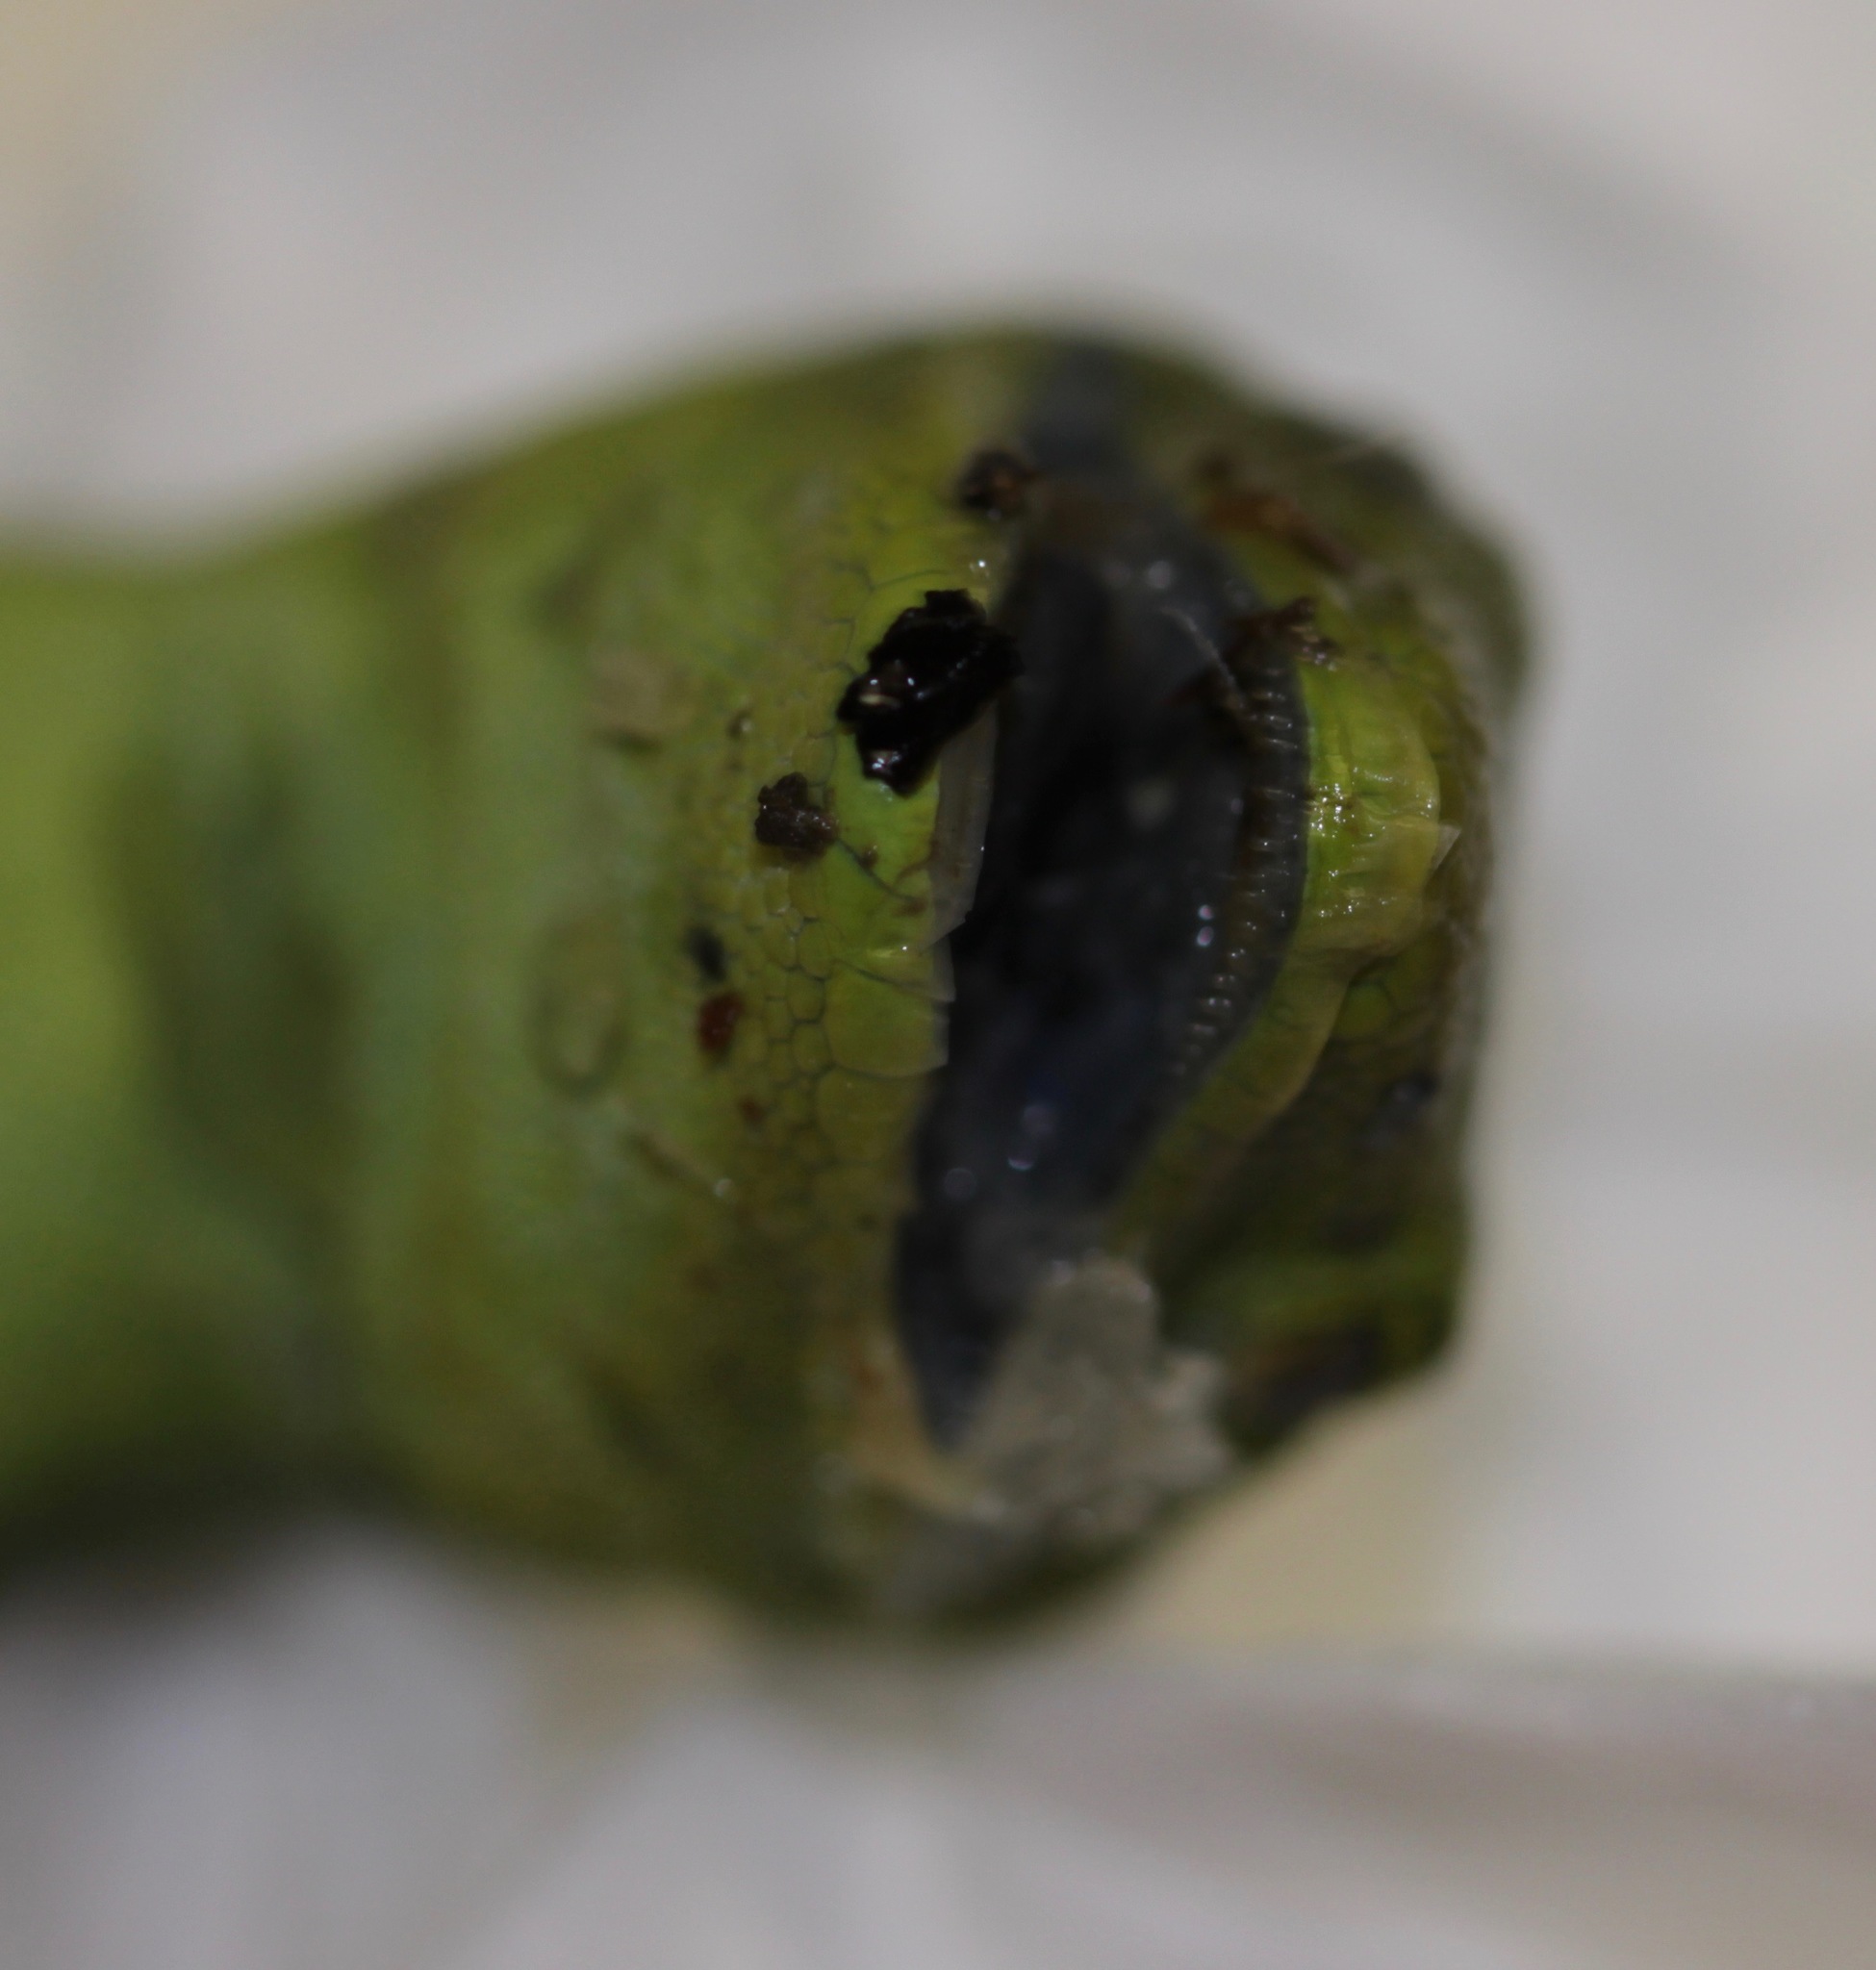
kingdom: Animalia
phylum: Chordata
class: Squamata
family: Diplodactylidae
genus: Naultinus
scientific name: Naultinus punctatus
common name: Wellington green gecko
